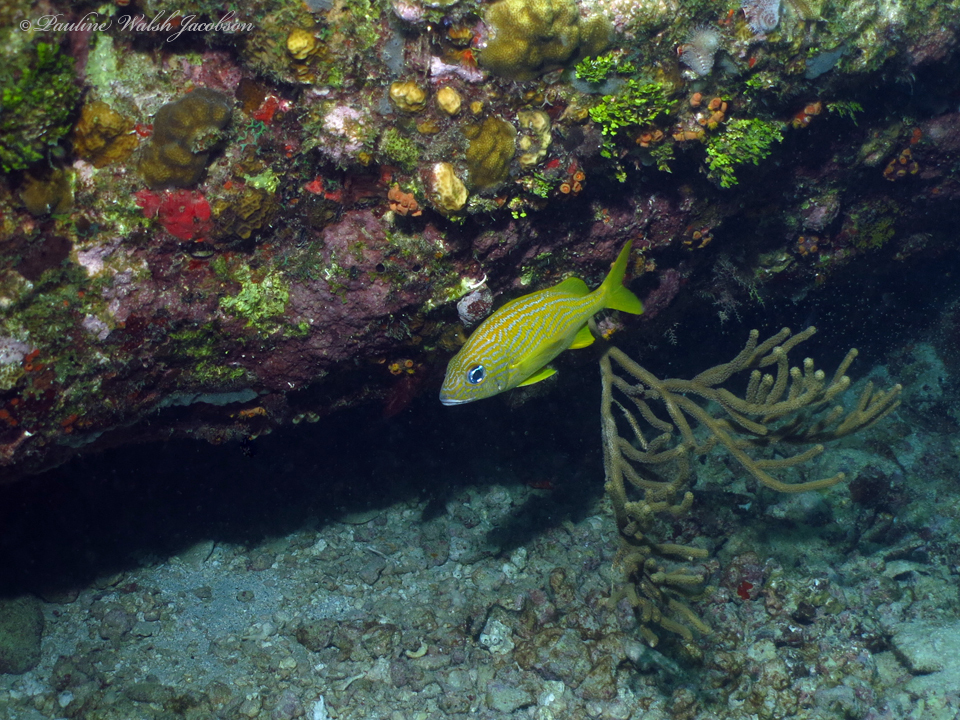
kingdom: Animalia
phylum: Chordata
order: Perciformes
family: Haemulidae
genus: Haemulon
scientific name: Haemulon flavolineatum
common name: French grunt
